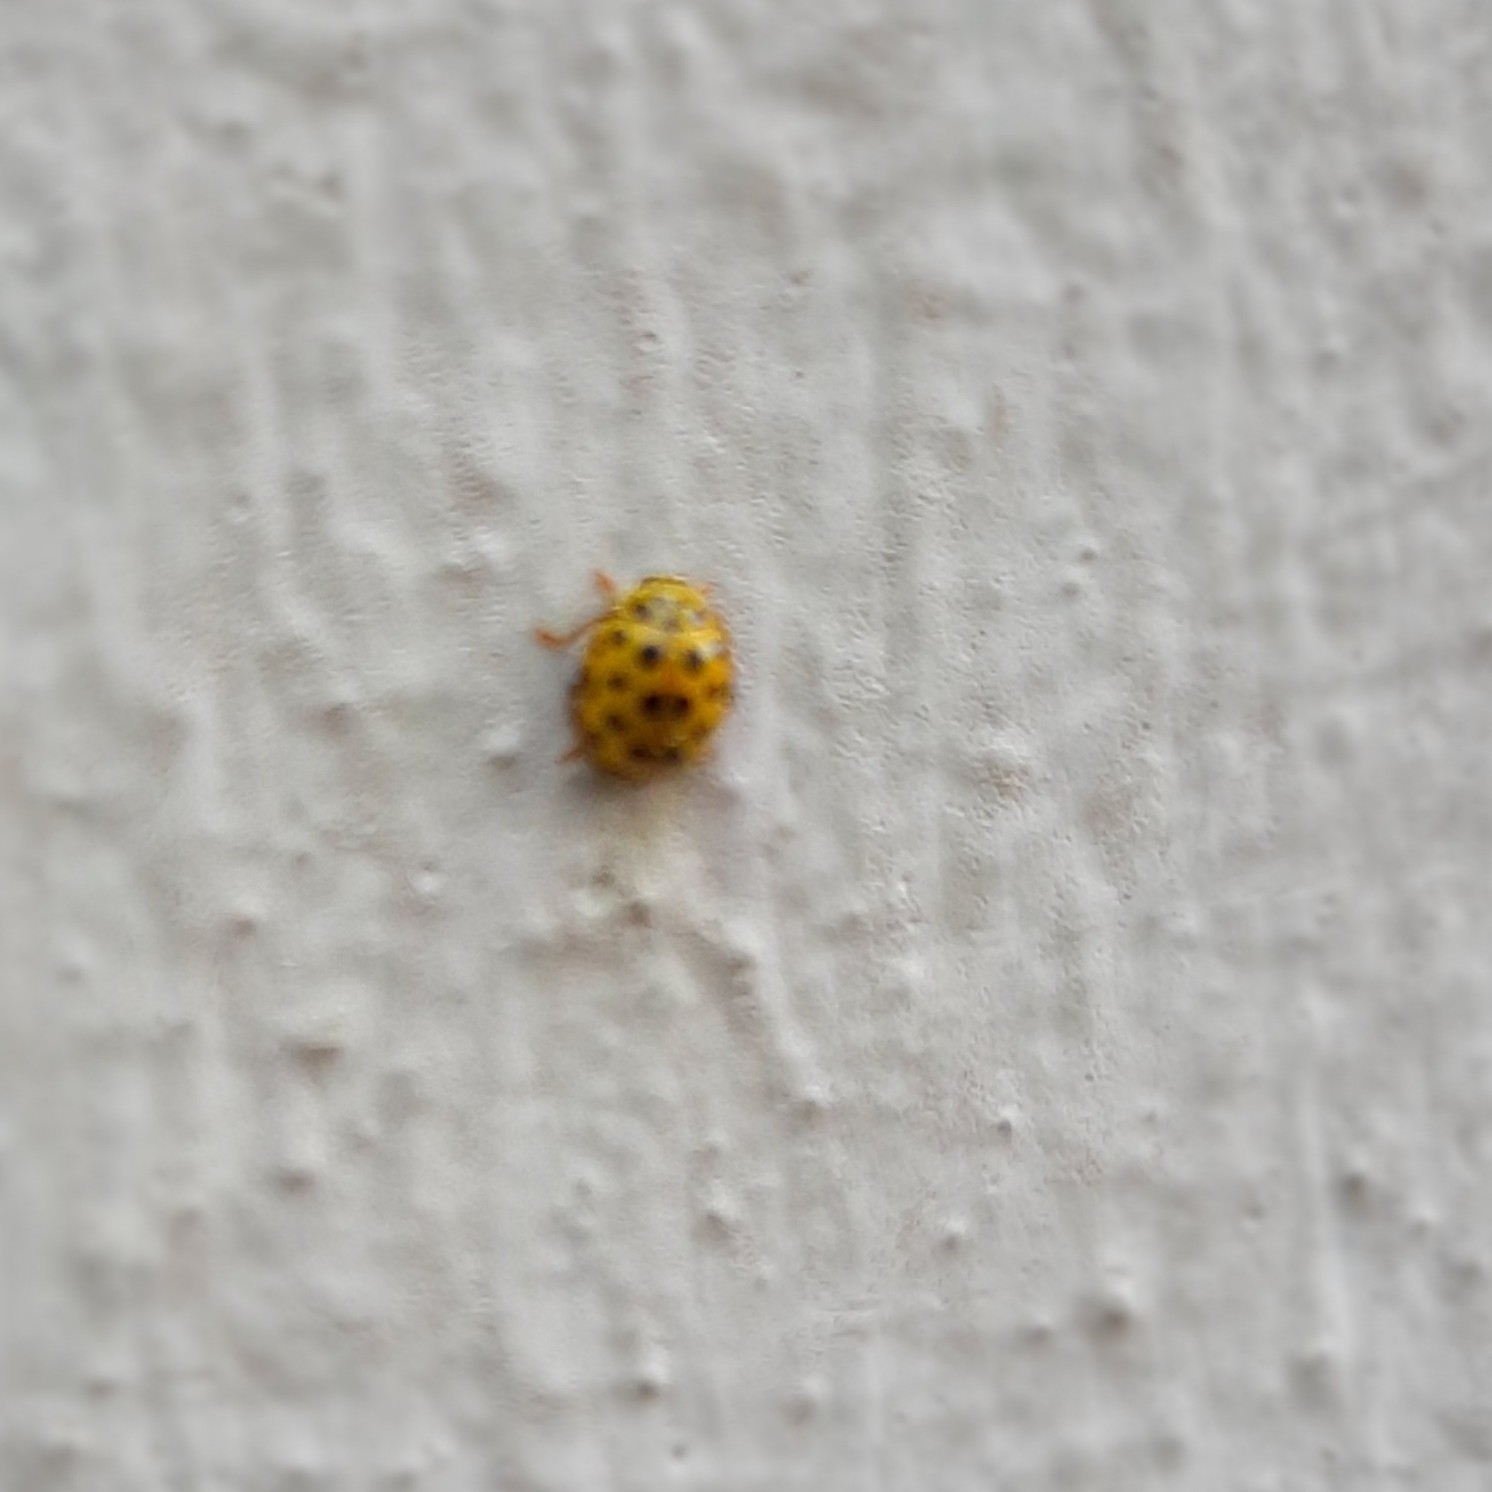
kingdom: Animalia
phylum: Arthropoda
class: Insecta
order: Coleoptera
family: Coccinellidae
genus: Psyllobora
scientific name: Psyllobora vigintiduopunctata
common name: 22-spot ladybird
